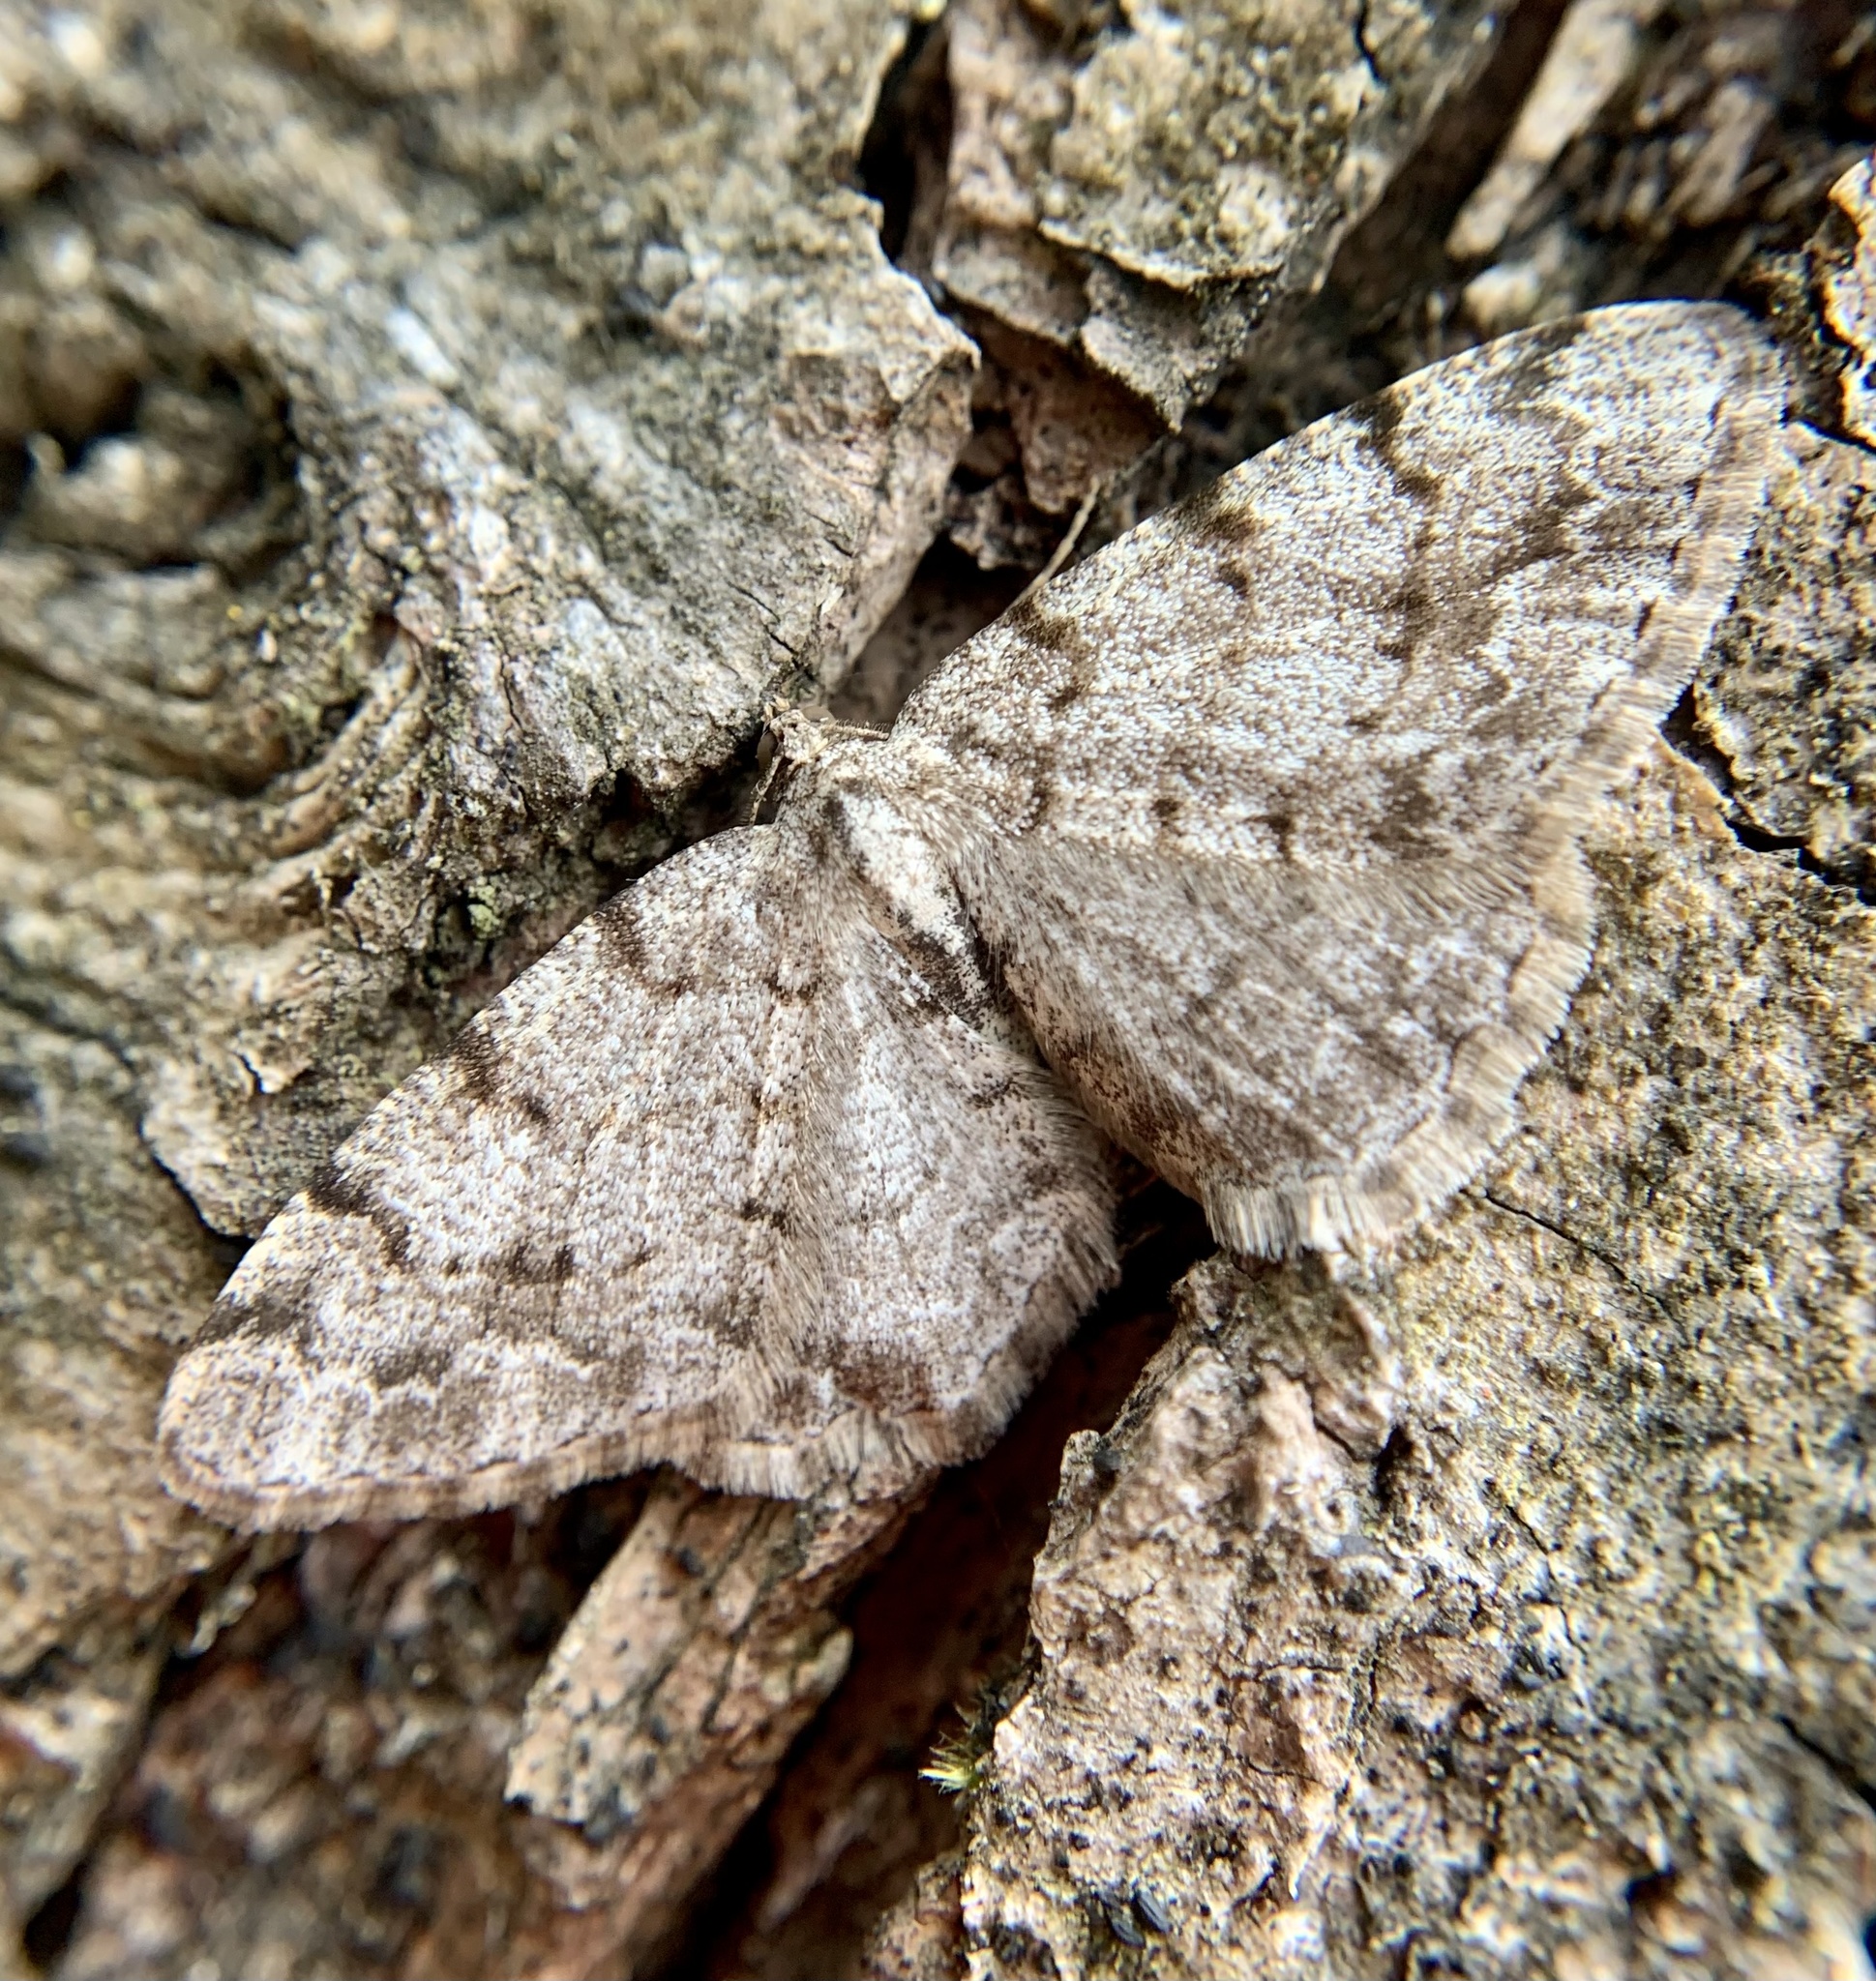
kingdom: Animalia
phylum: Arthropoda
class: Insecta
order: Lepidoptera
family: Geometridae
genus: Aethalura
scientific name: Aethalura punctulata
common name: Grey birch
